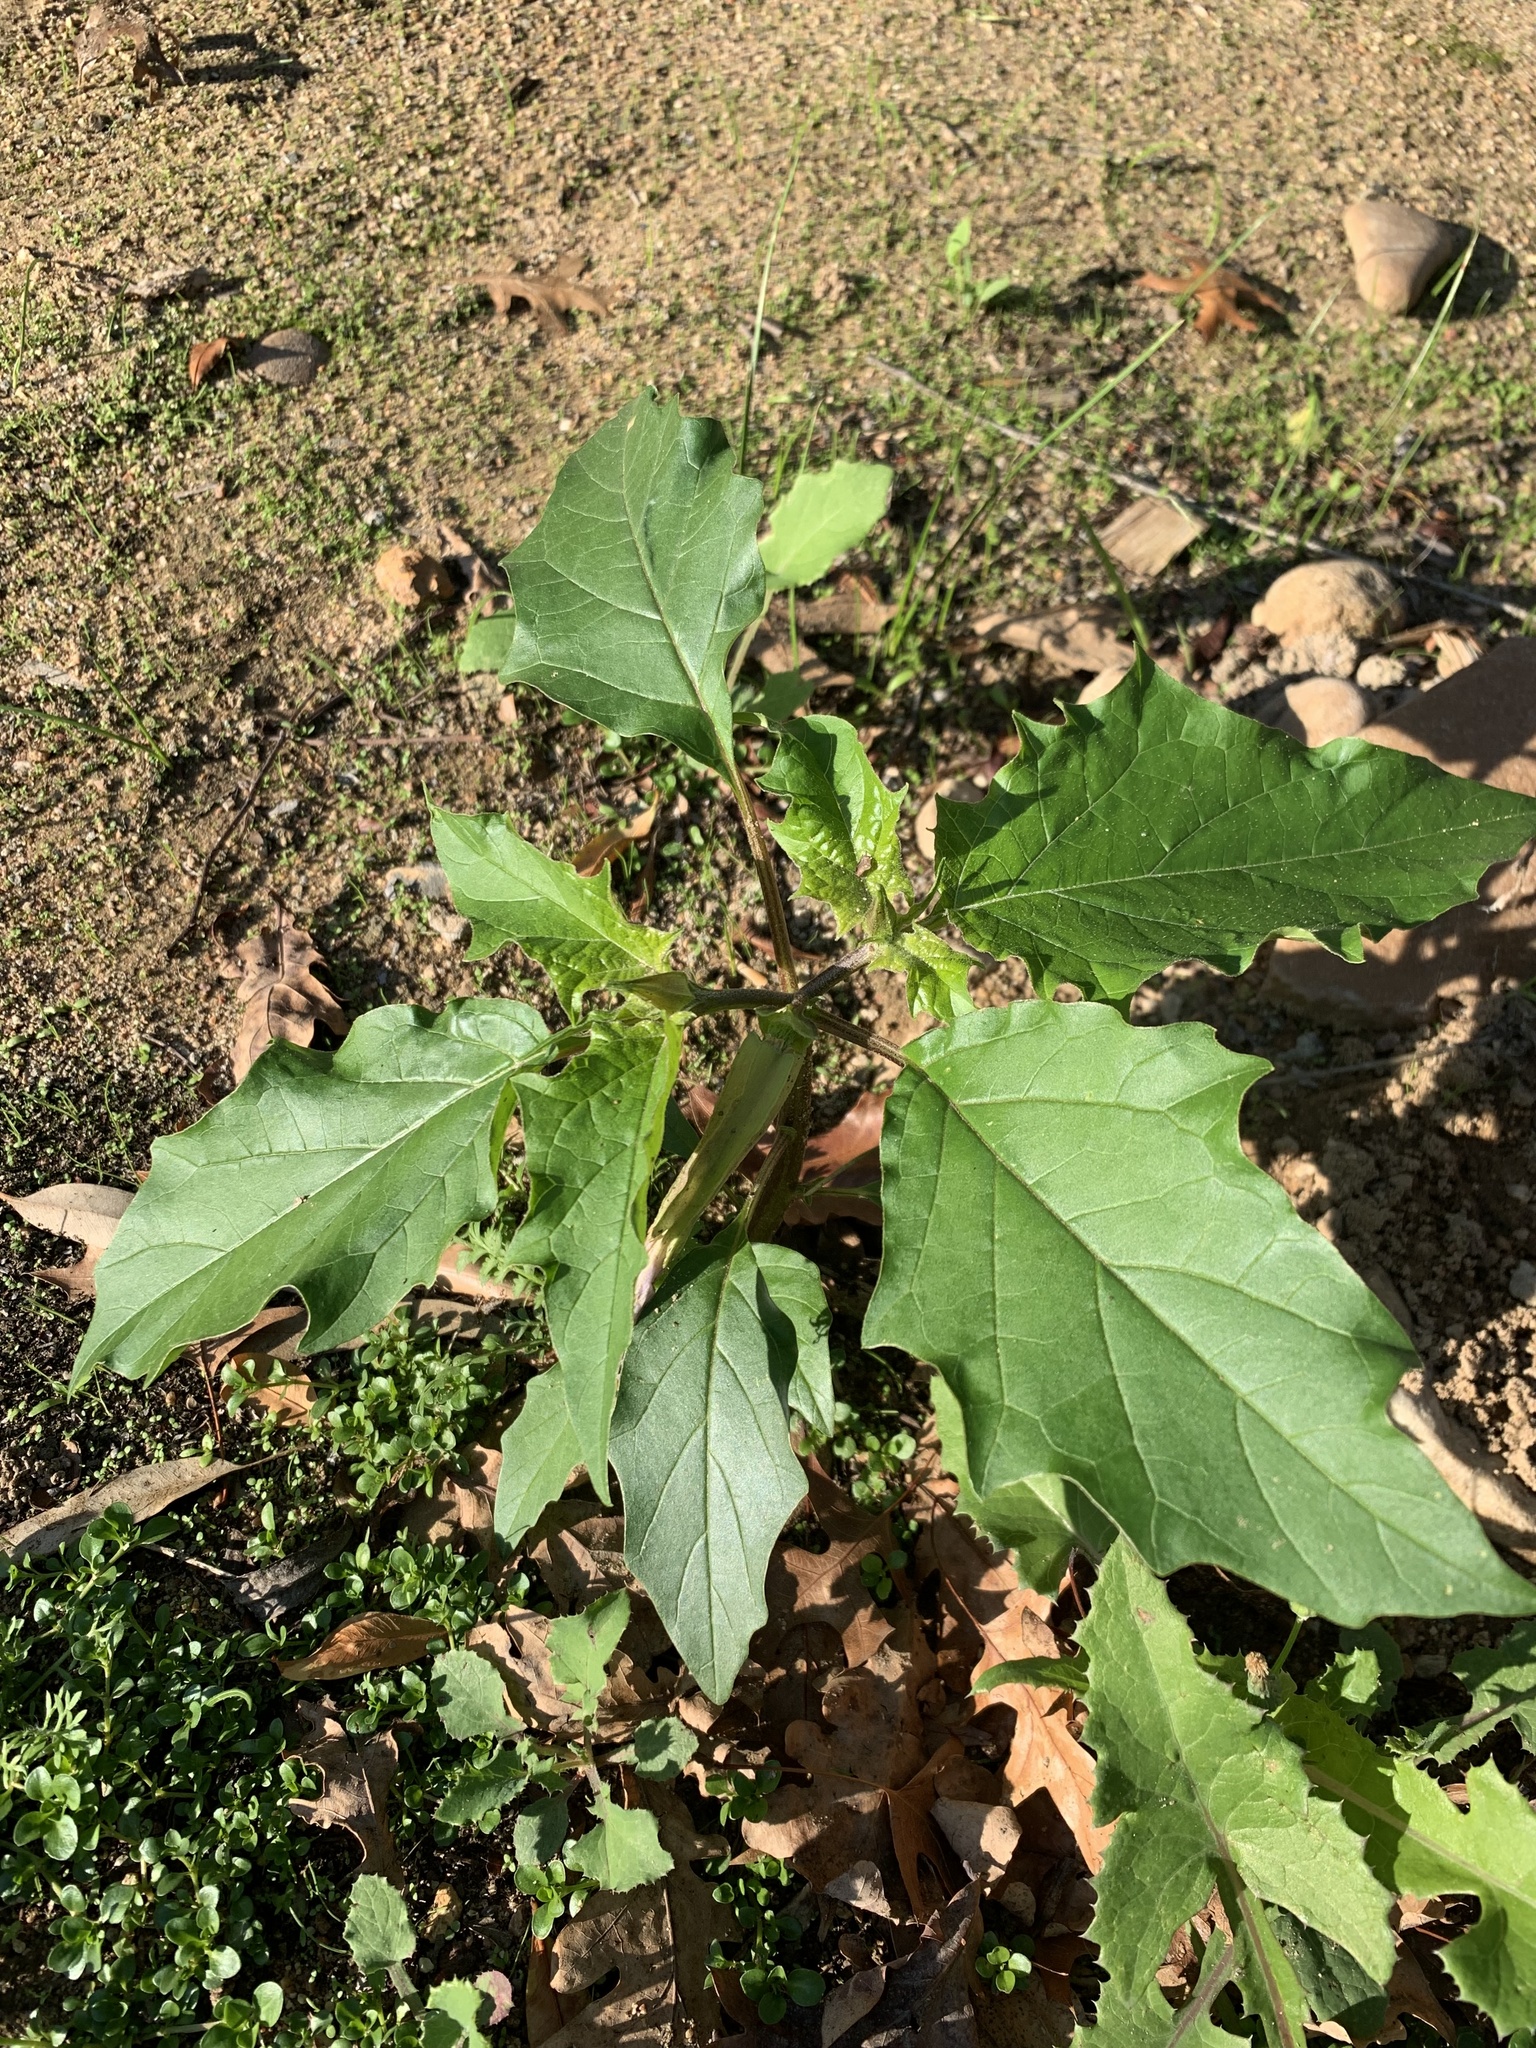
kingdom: Plantae
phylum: Tracheophyta
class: Magnoliopsida
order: Solanales
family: Solanaceae
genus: Datura
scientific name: Datura stramonium
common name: Thorn-apple
